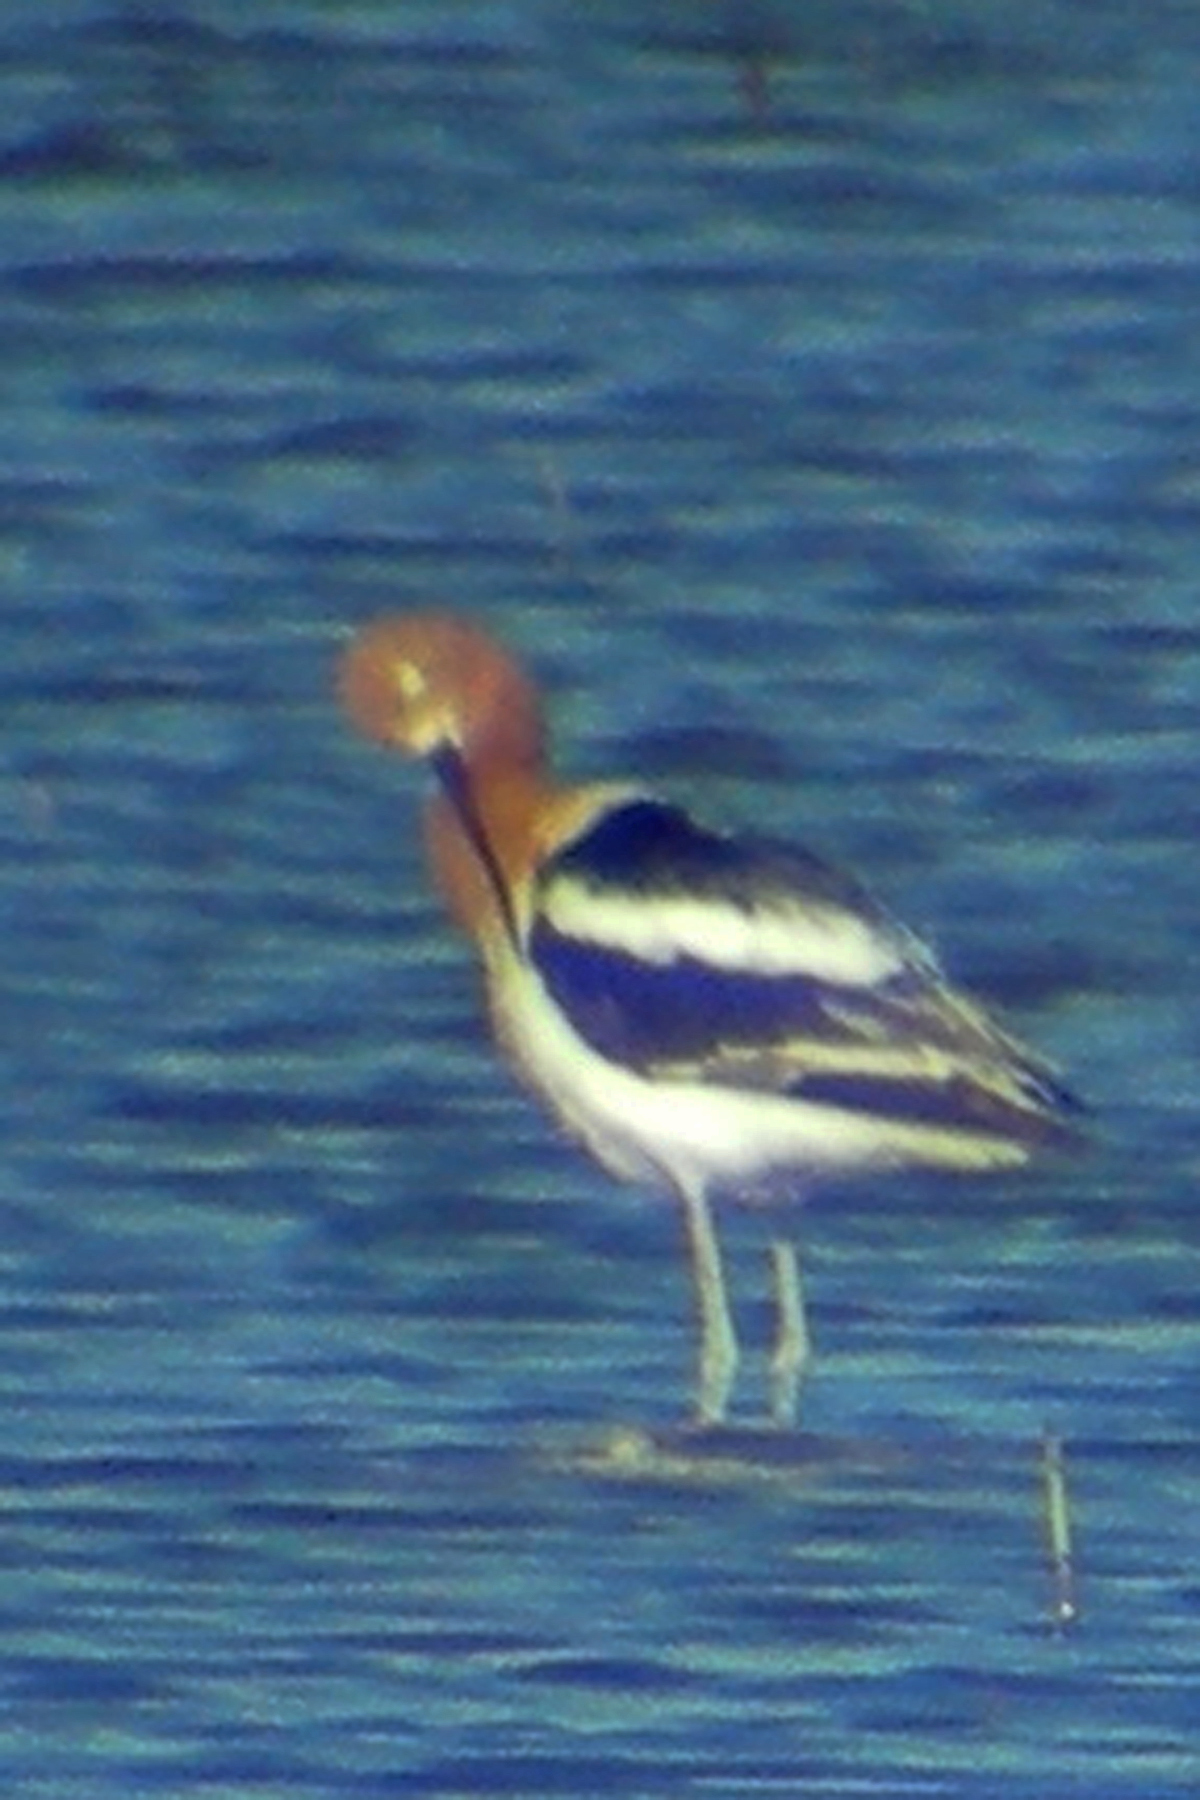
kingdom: Animalia
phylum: Chordata
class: Aves
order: Charadriiformes
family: Recurvirostridae
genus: Recurvirostra
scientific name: Recurvirostra americana
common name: American avocet
